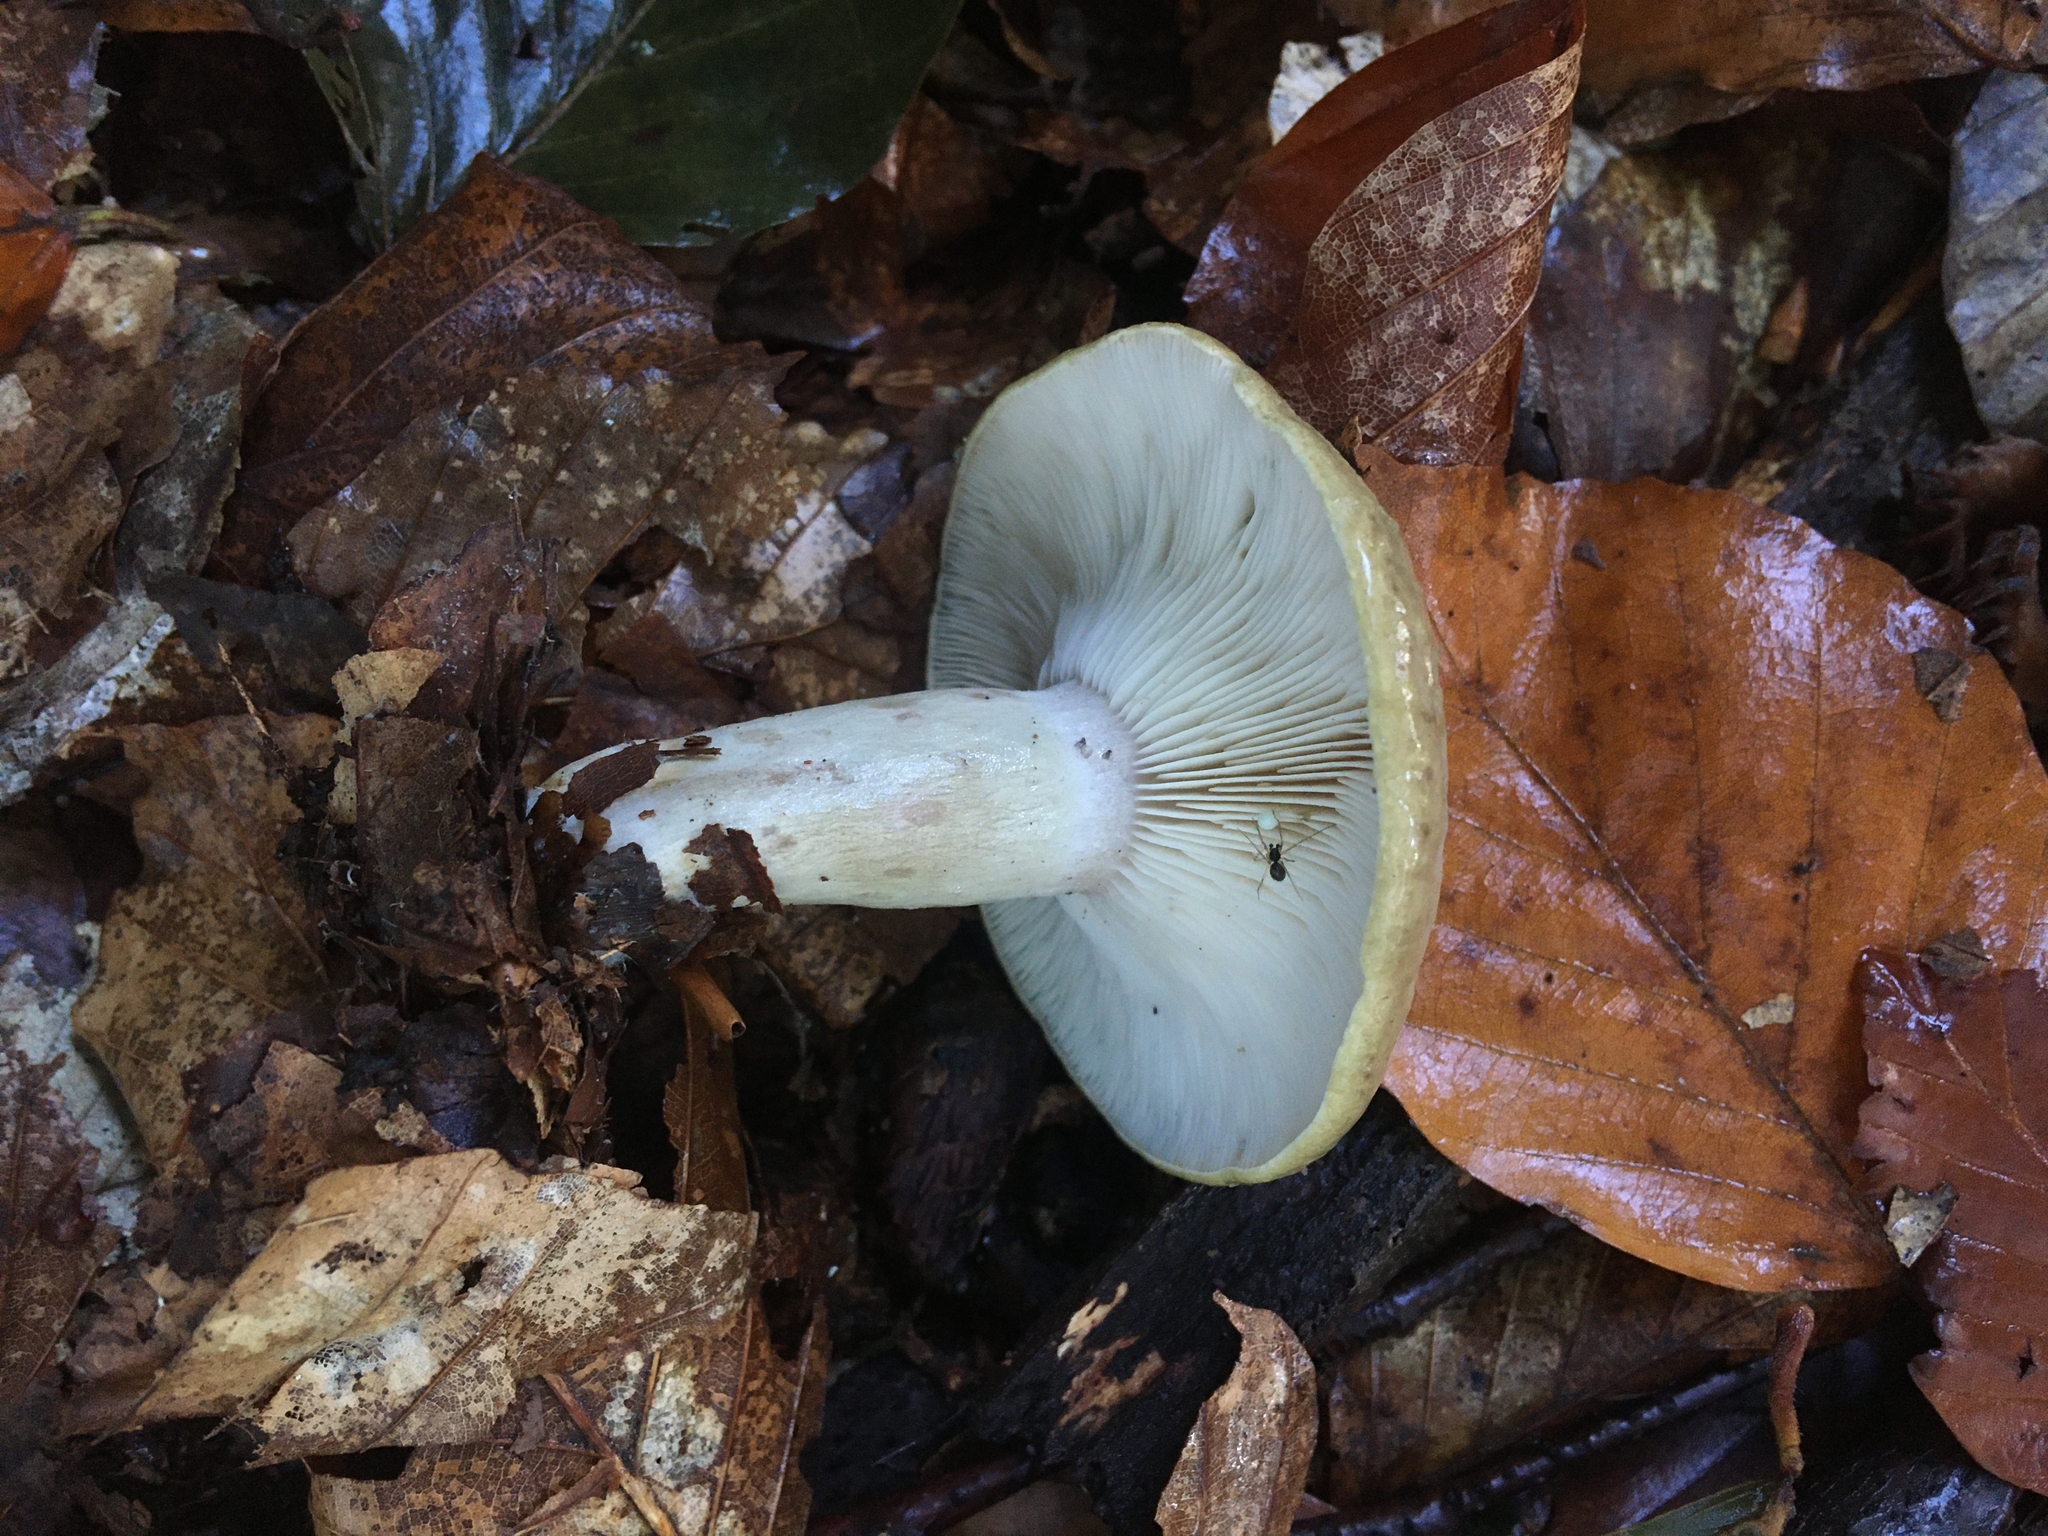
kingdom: Fungi
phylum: Basidiomycota
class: Agaricomycetes
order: Russulales
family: Russulaceae
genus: Lactarius
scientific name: Lactarius blennius
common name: Beech milkcap
